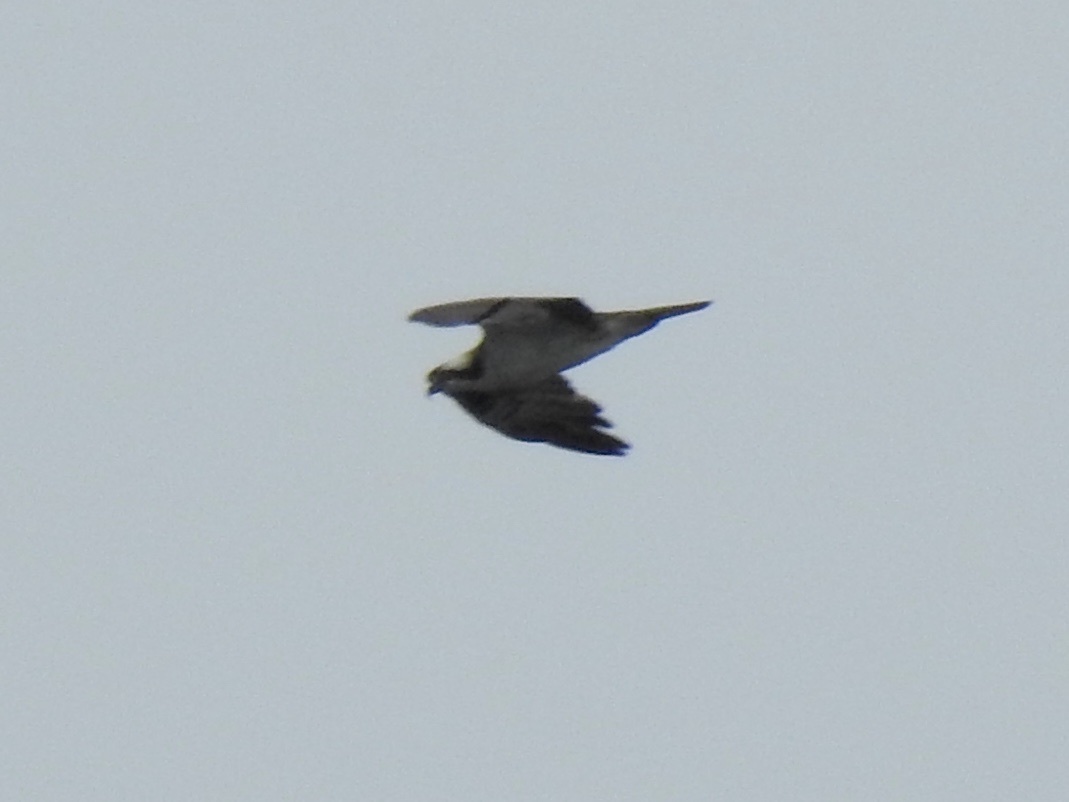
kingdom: Animalia
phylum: Chordata
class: Aves
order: Accipitriformes
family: Pandionidae
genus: Pandion
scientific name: Pandion haliaetus
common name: Osprey
